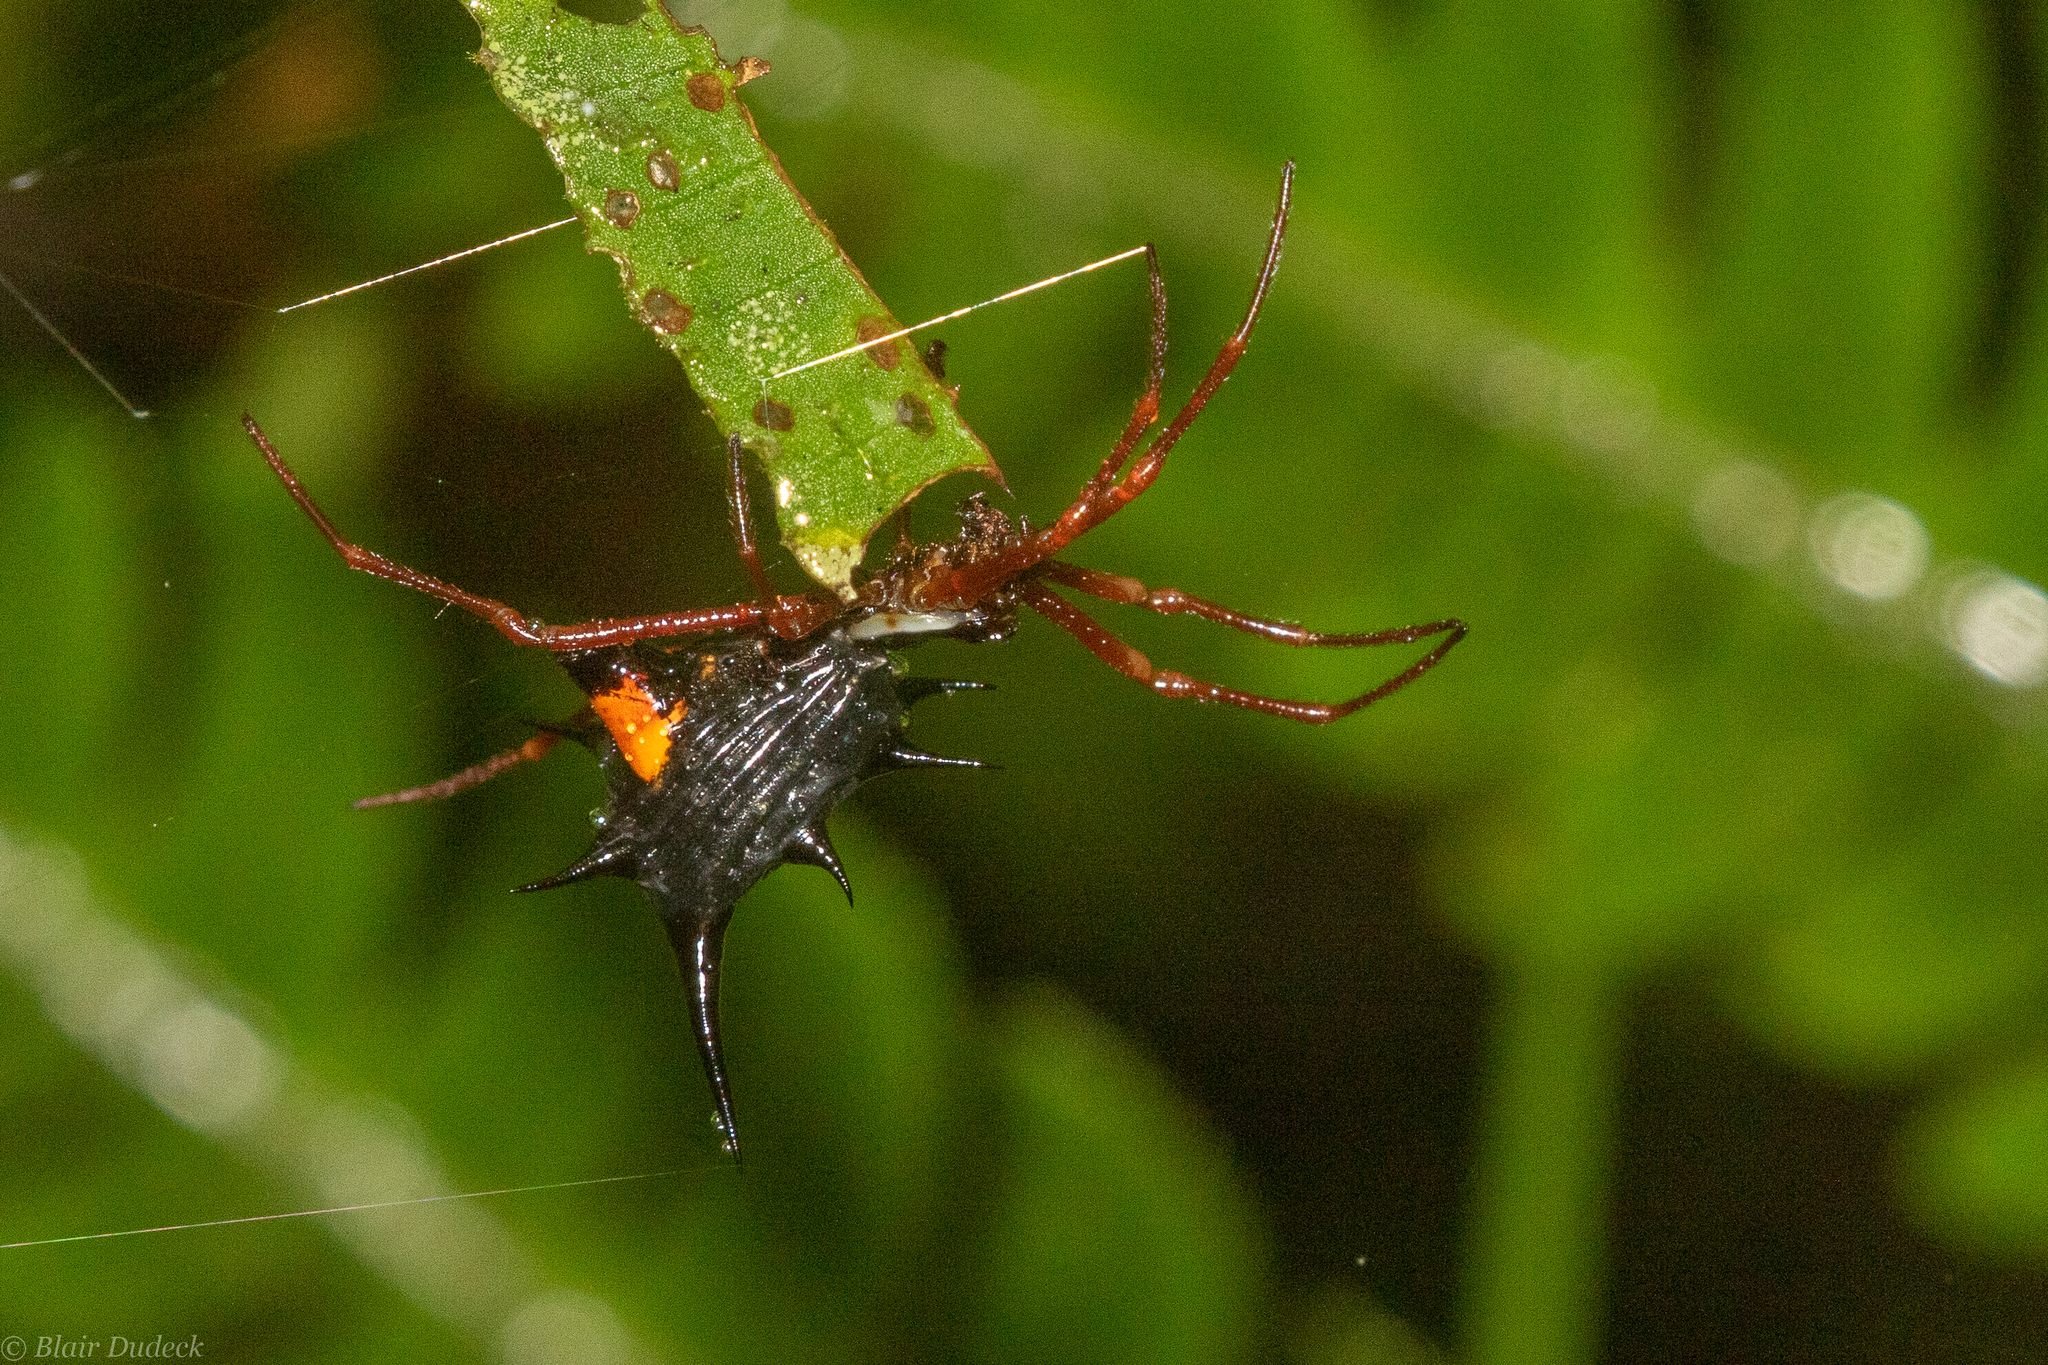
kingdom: Animalia
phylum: Arthropoda
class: Arachnida
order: Araneae
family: Araneidae
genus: Micrathena
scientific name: Micrathena schreibersi
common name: Orb weavers
